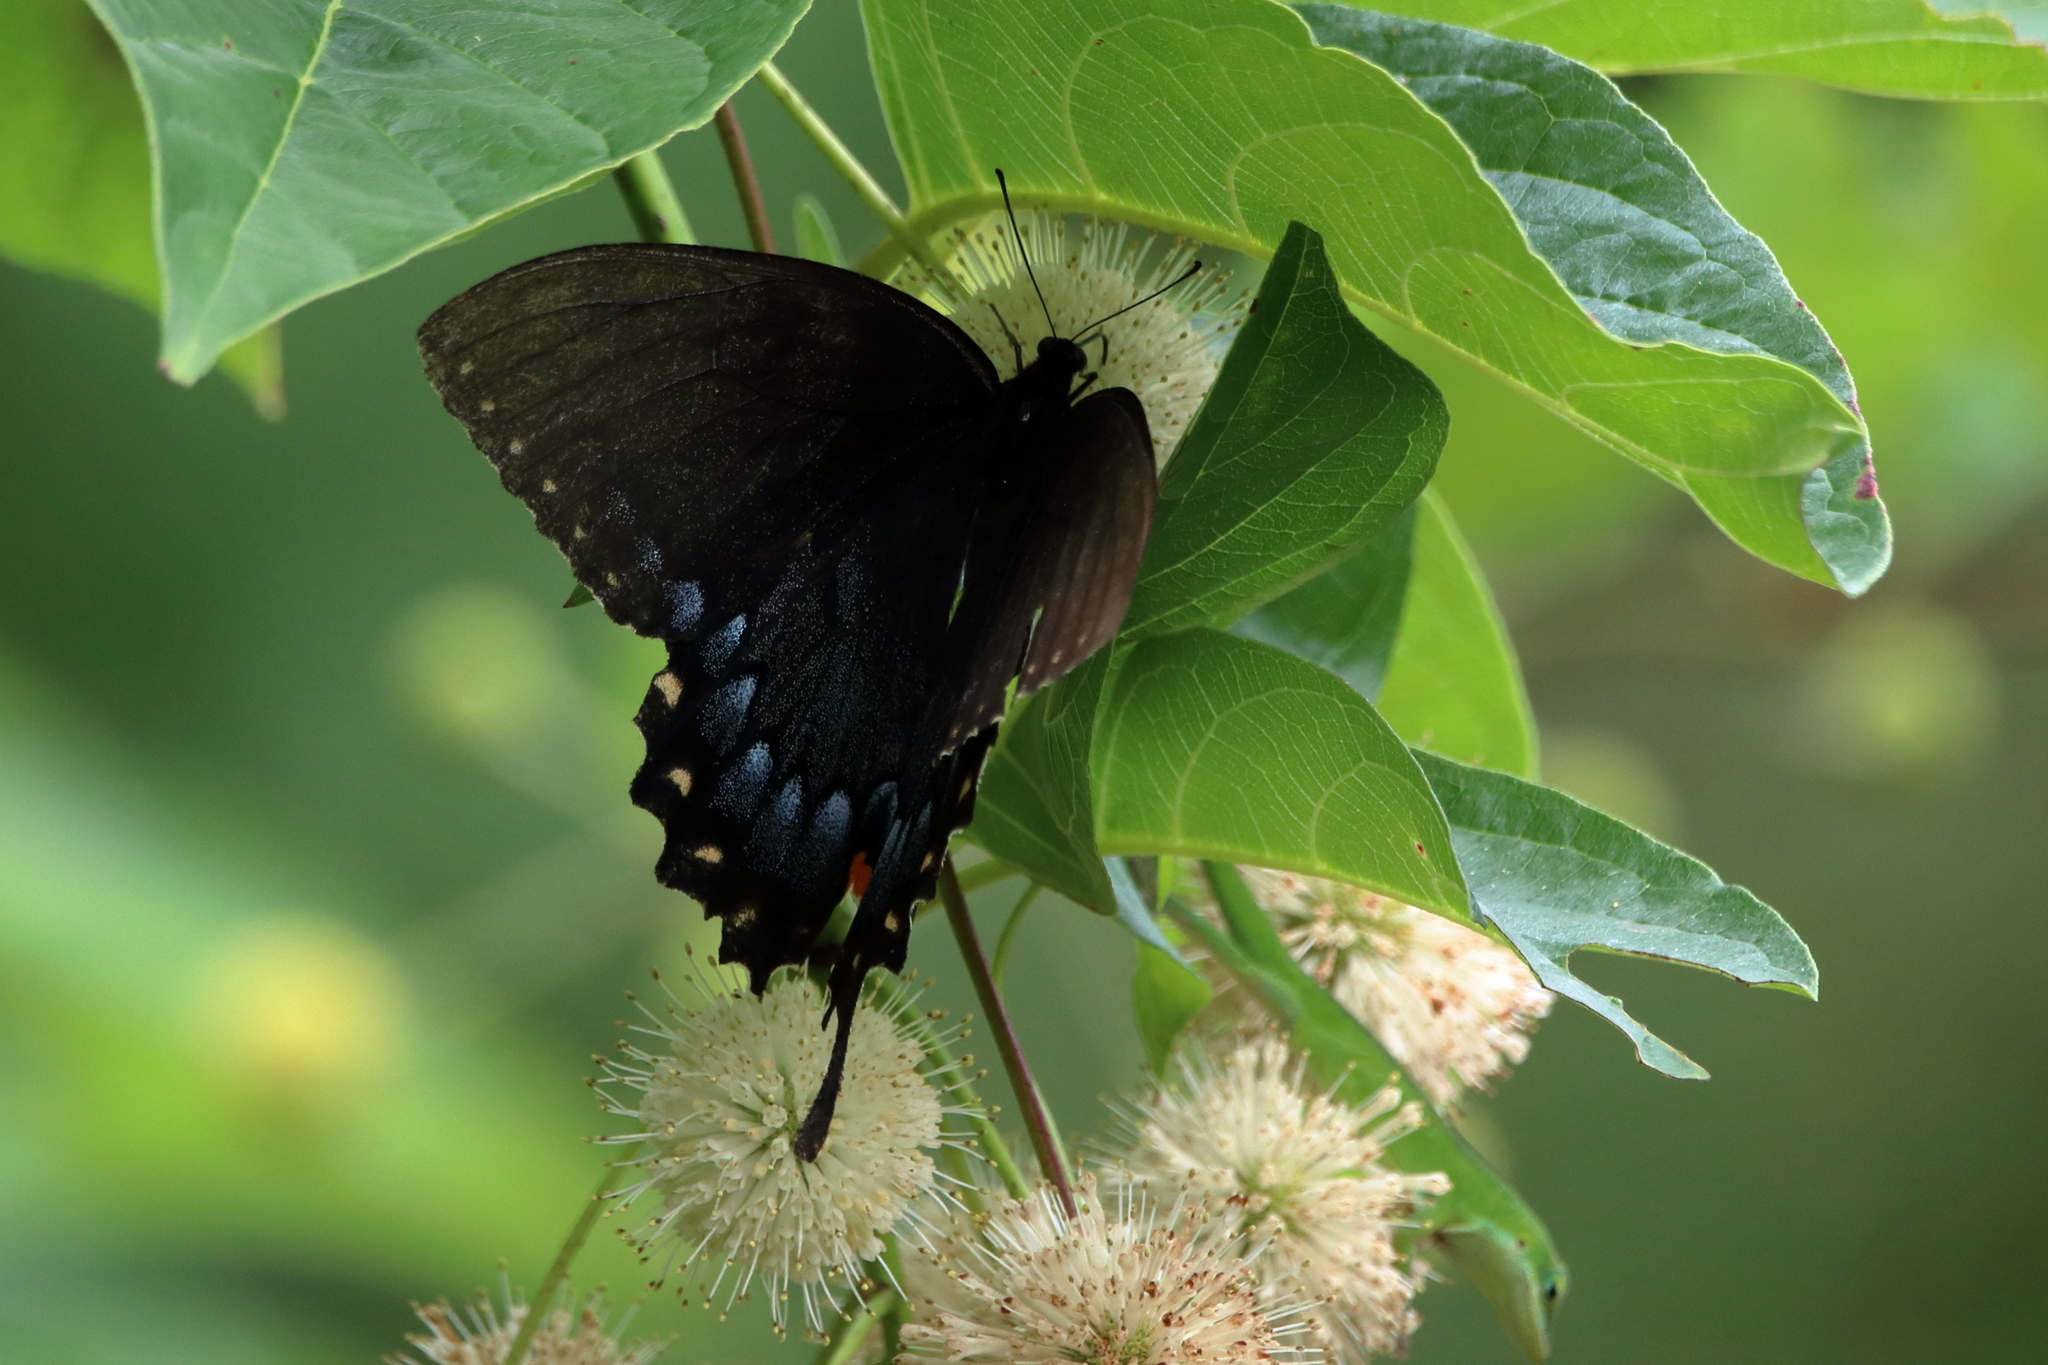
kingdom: Animalia
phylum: Arthropoda
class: Insecta
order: Lepidoptera
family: Papilionidae
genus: Papilio
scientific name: Papilio glaucus
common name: Tiger swallowtail
